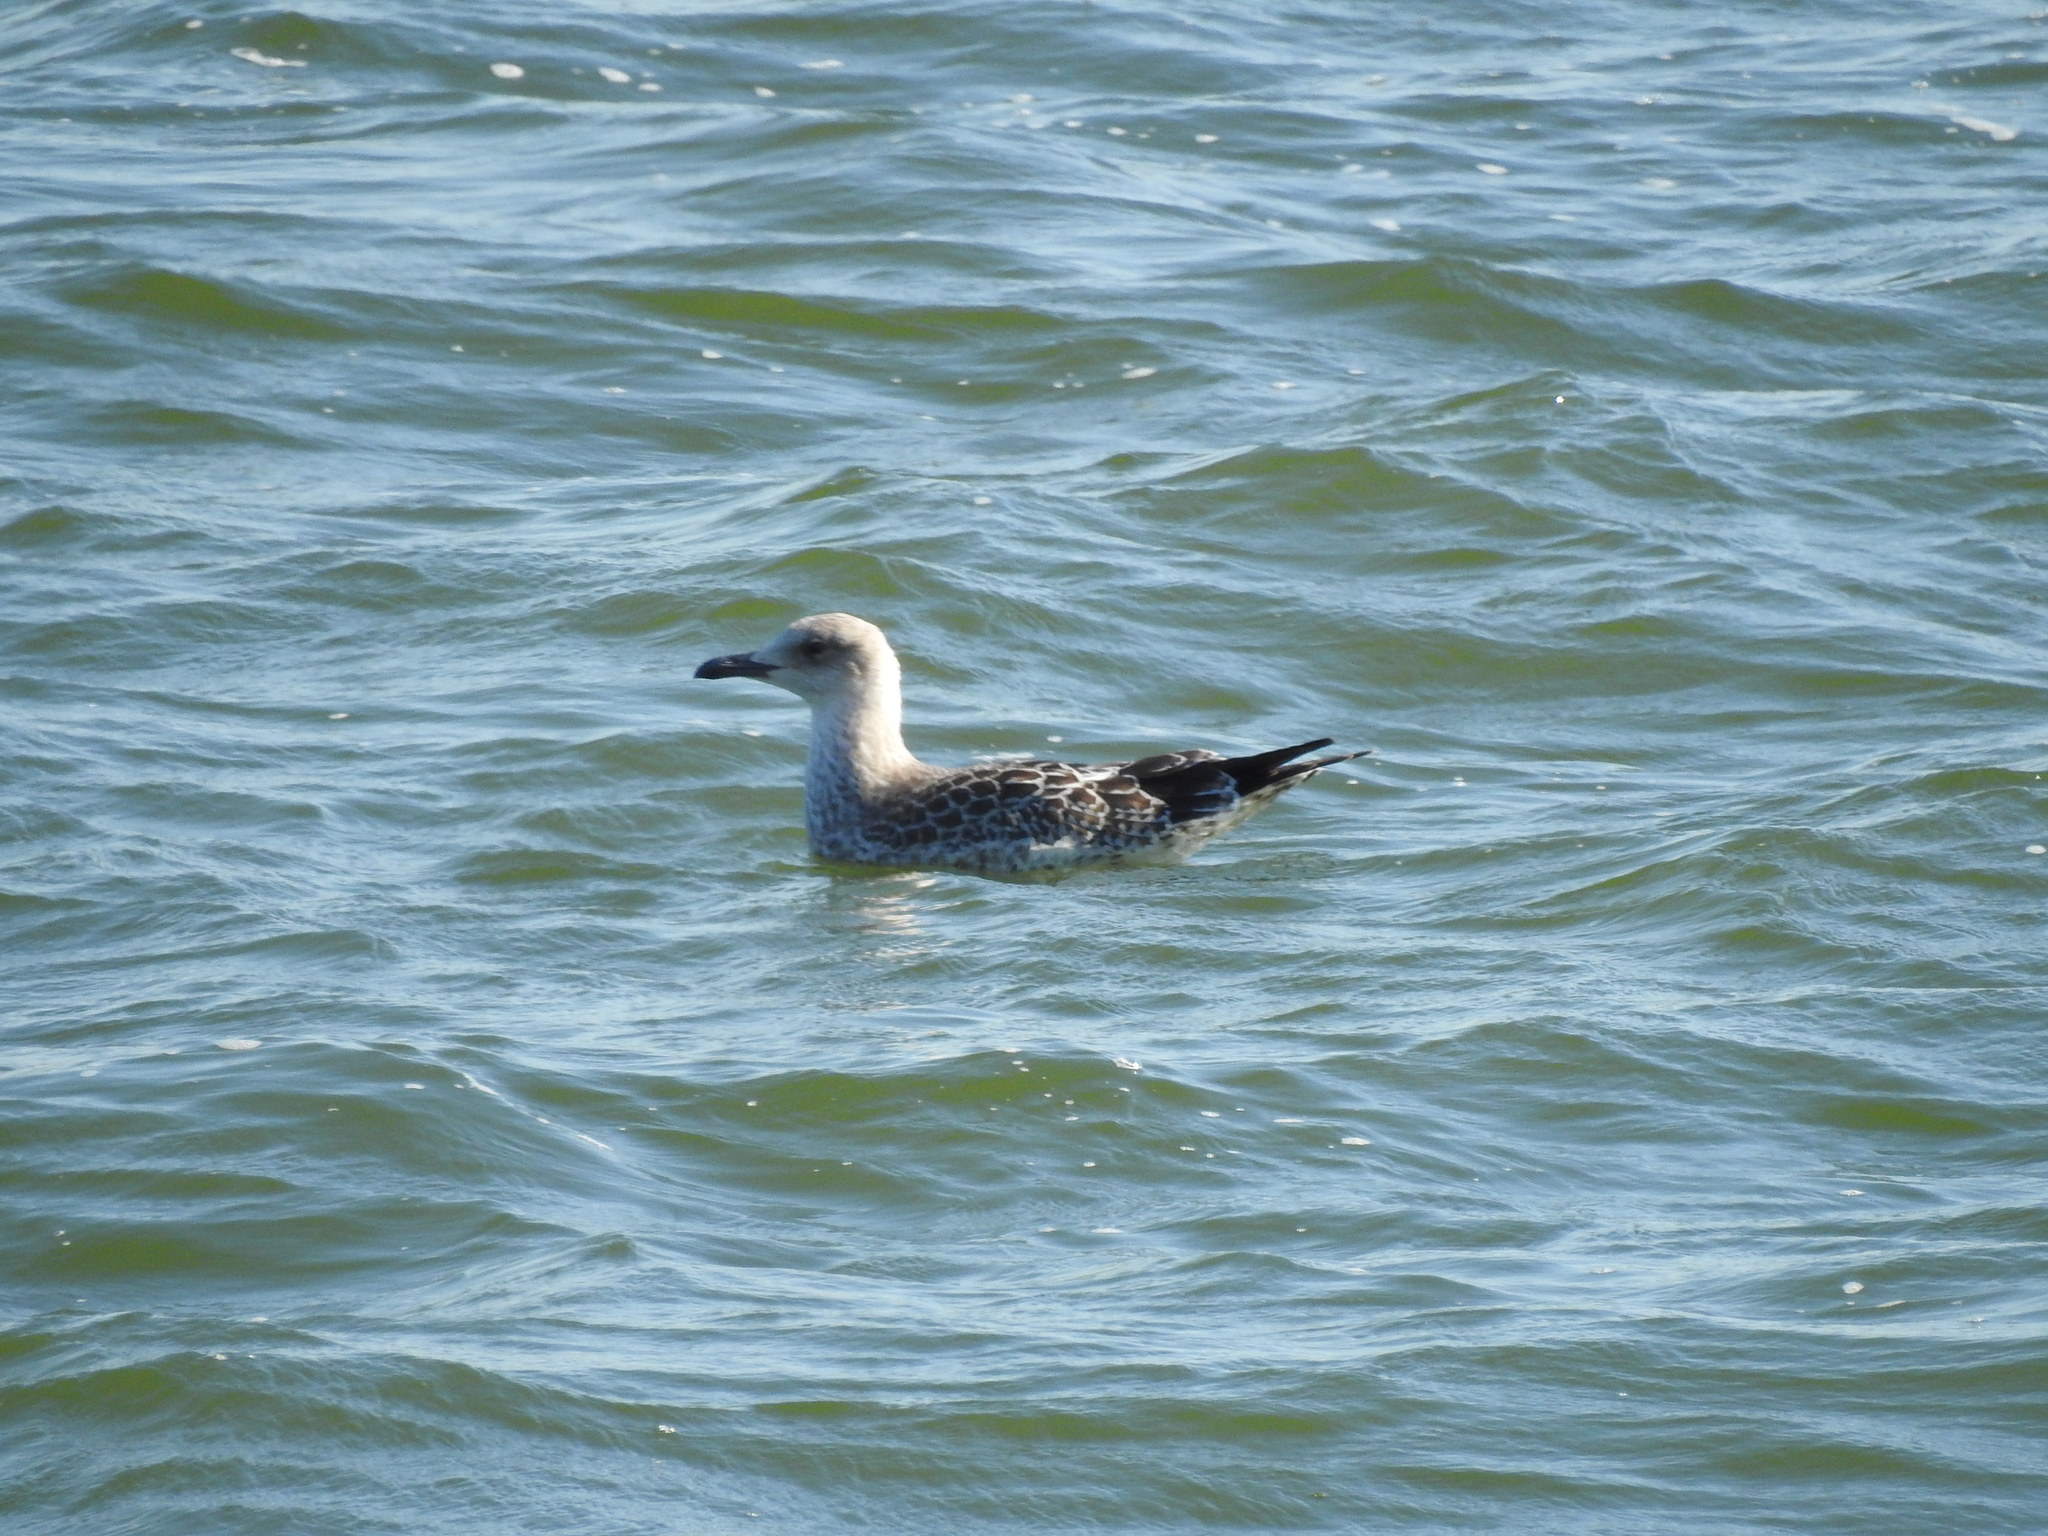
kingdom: Animalia
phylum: Chordata
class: Aves
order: Charadriiformes
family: Laridae
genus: Larus
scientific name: Larus fuscus
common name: Lesser black-backed gull
